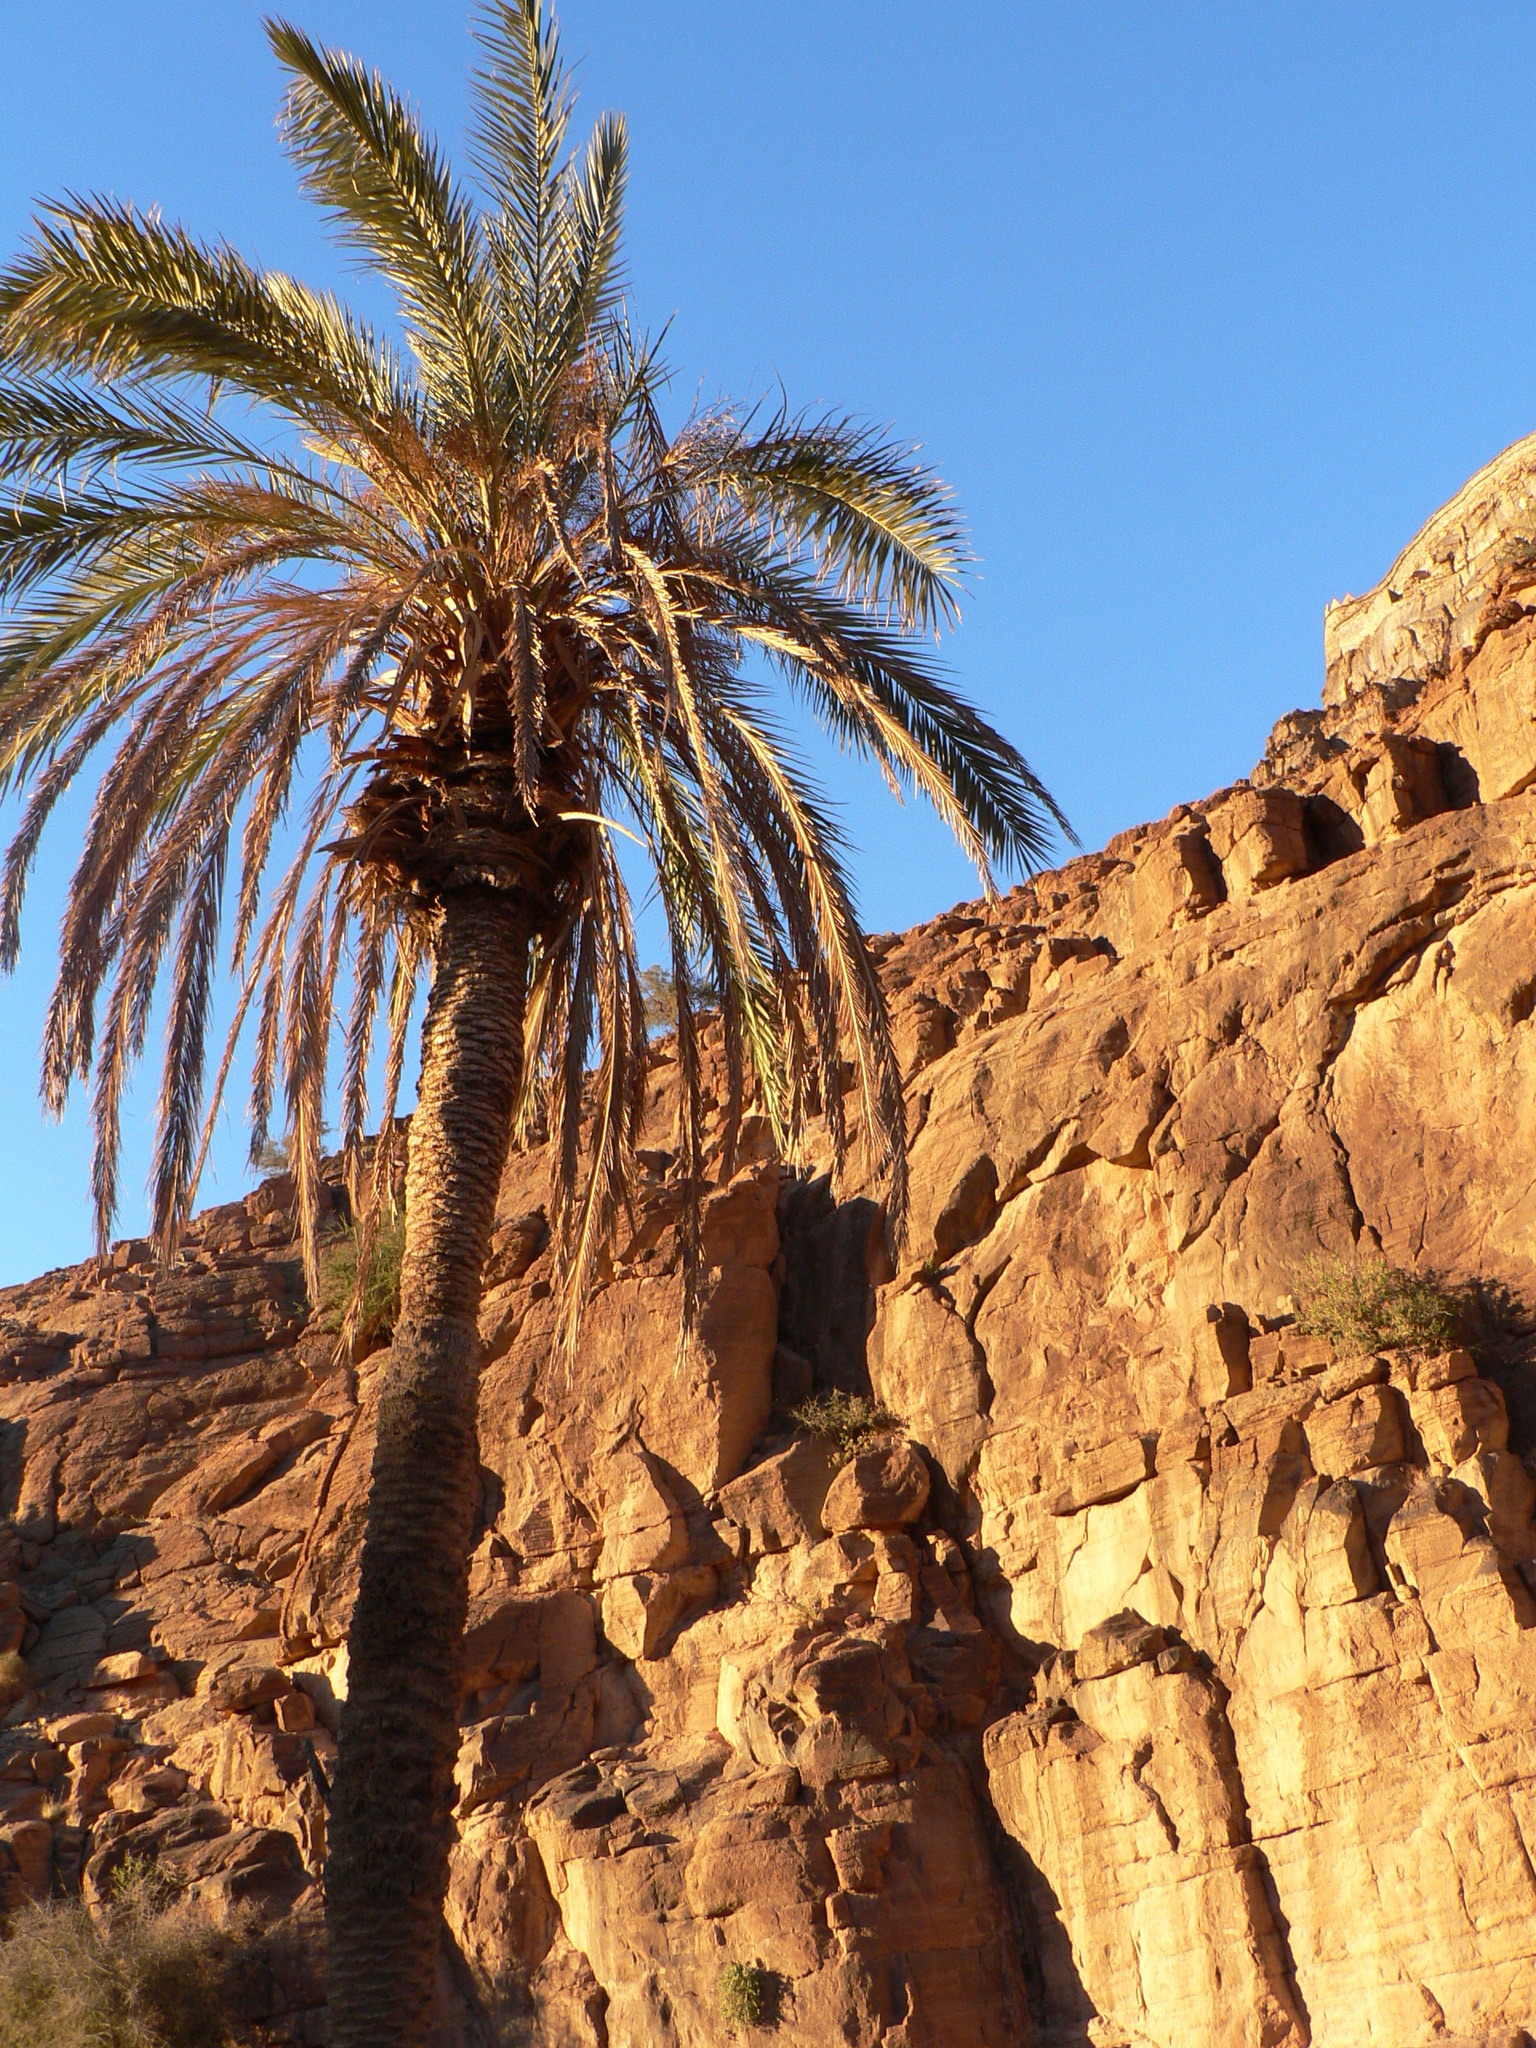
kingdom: Plantae
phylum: Tracheophyta
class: Liliopsida
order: Arecales
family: Arecaceae
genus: Phoenix
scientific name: Phoenix dactylifera
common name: Date palm
